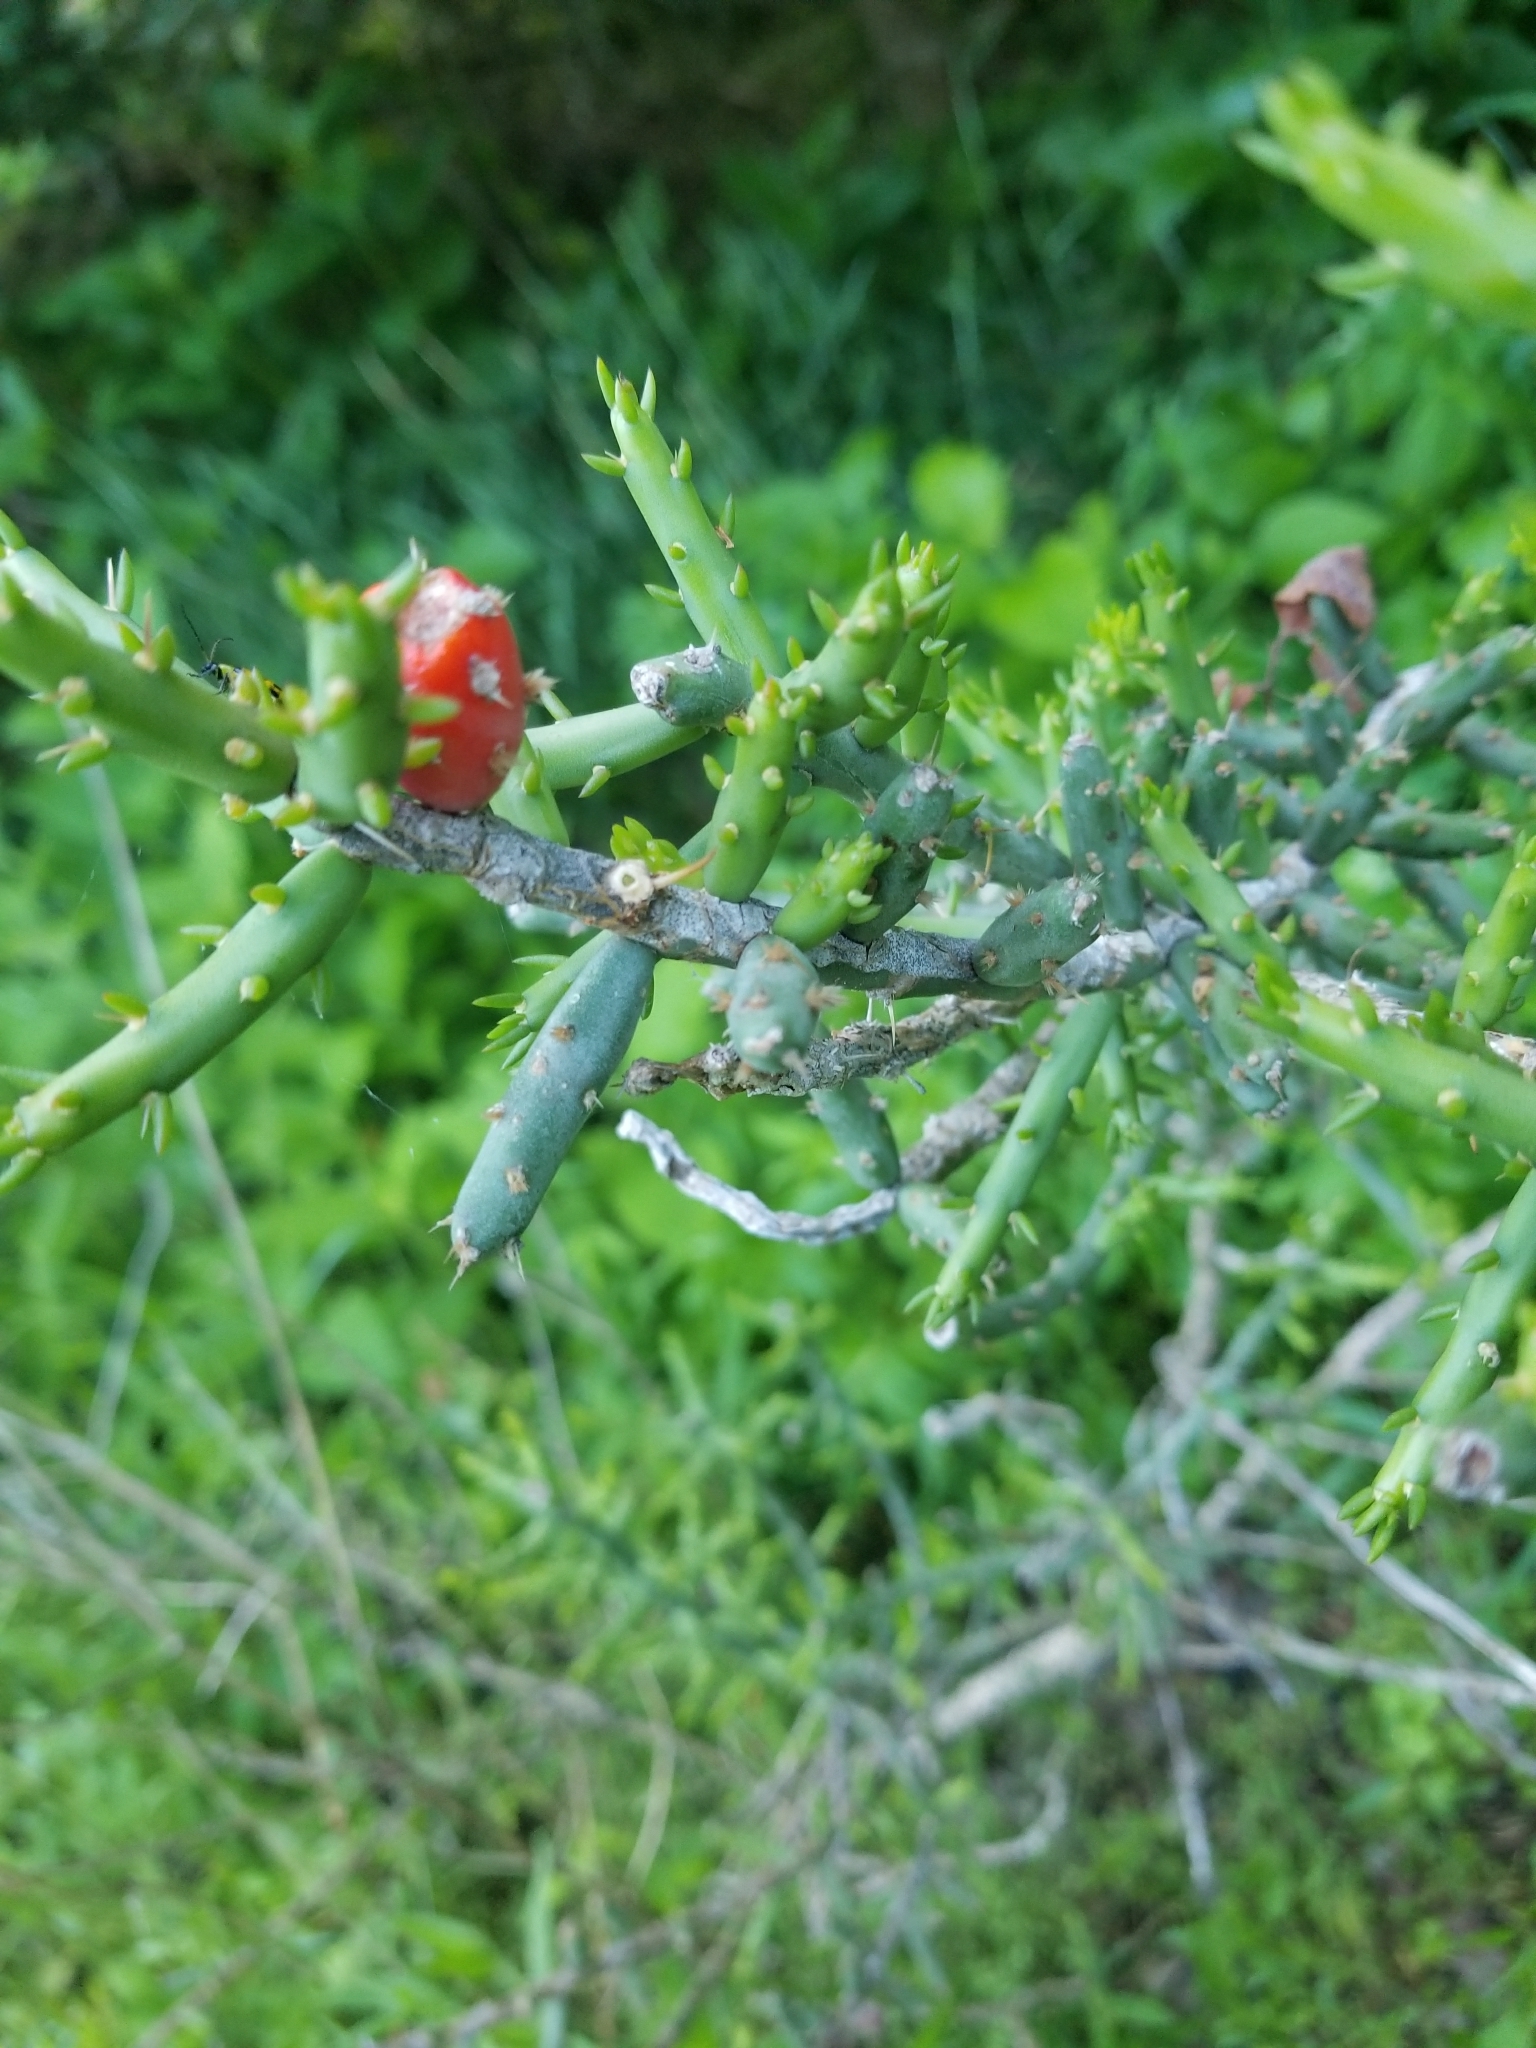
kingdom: Plantae
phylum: Tracheophyta
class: Magnoliopsida
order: Caryophyllales
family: Cactaceae
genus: Cylindropuntia
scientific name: Cylindropuntia leptocaulis
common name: Christmas cactus
